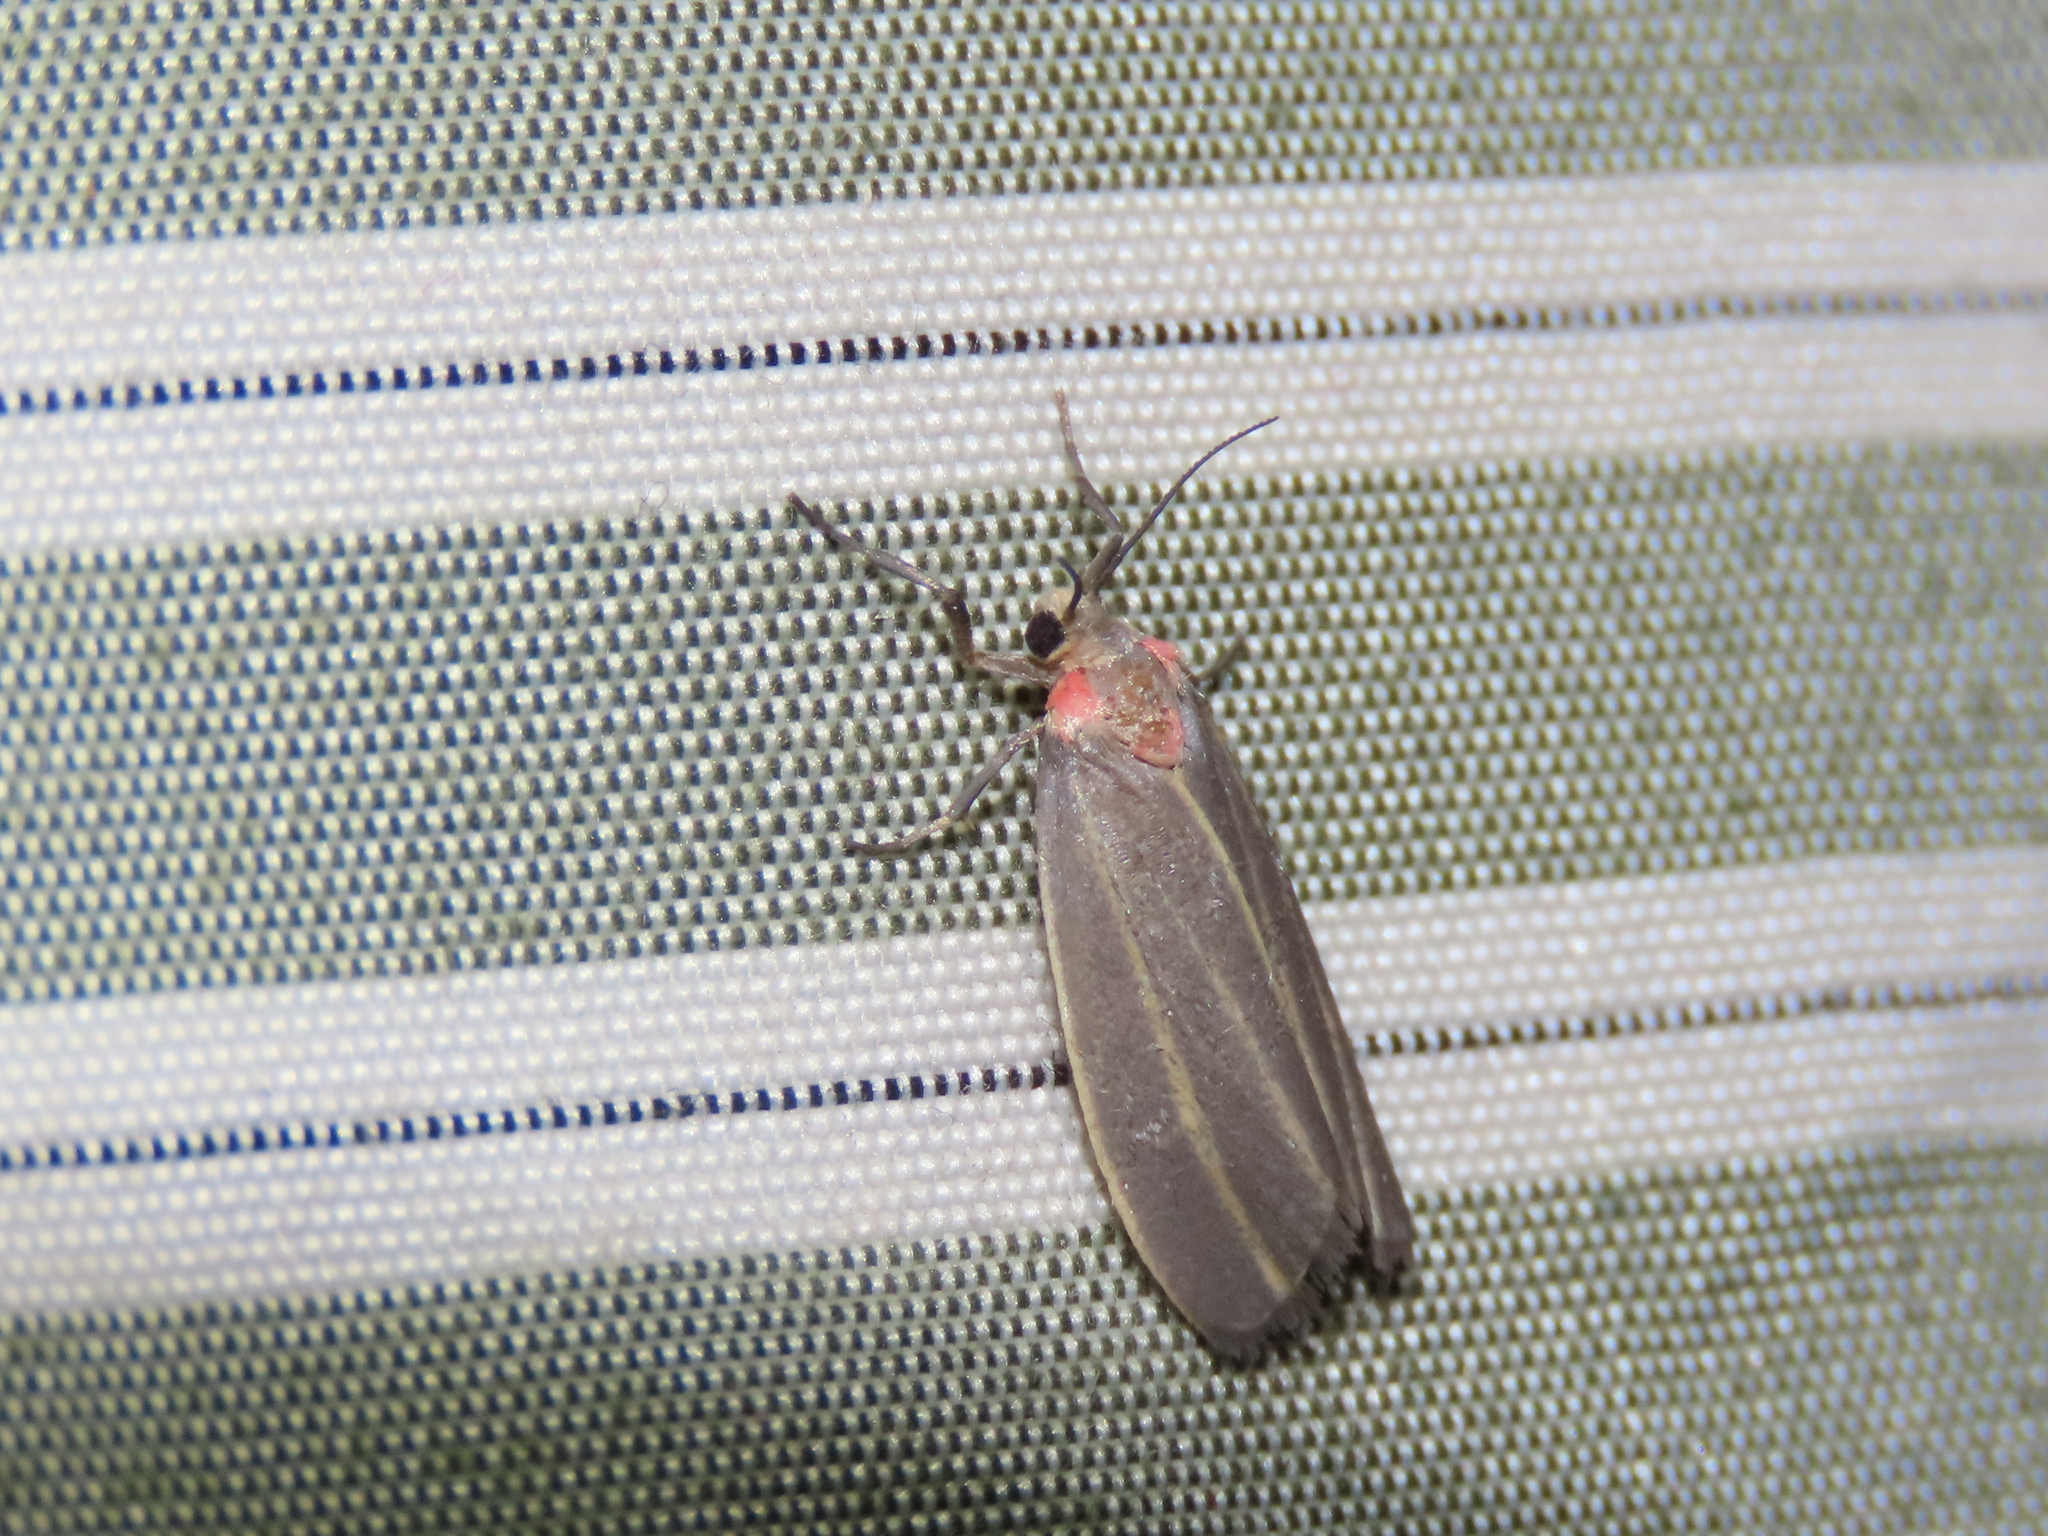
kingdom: Animalia
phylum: Arthropoda
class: Insecta
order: Lepidoptera
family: Erebidae
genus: Haematomis
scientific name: Haematomis uniformis
